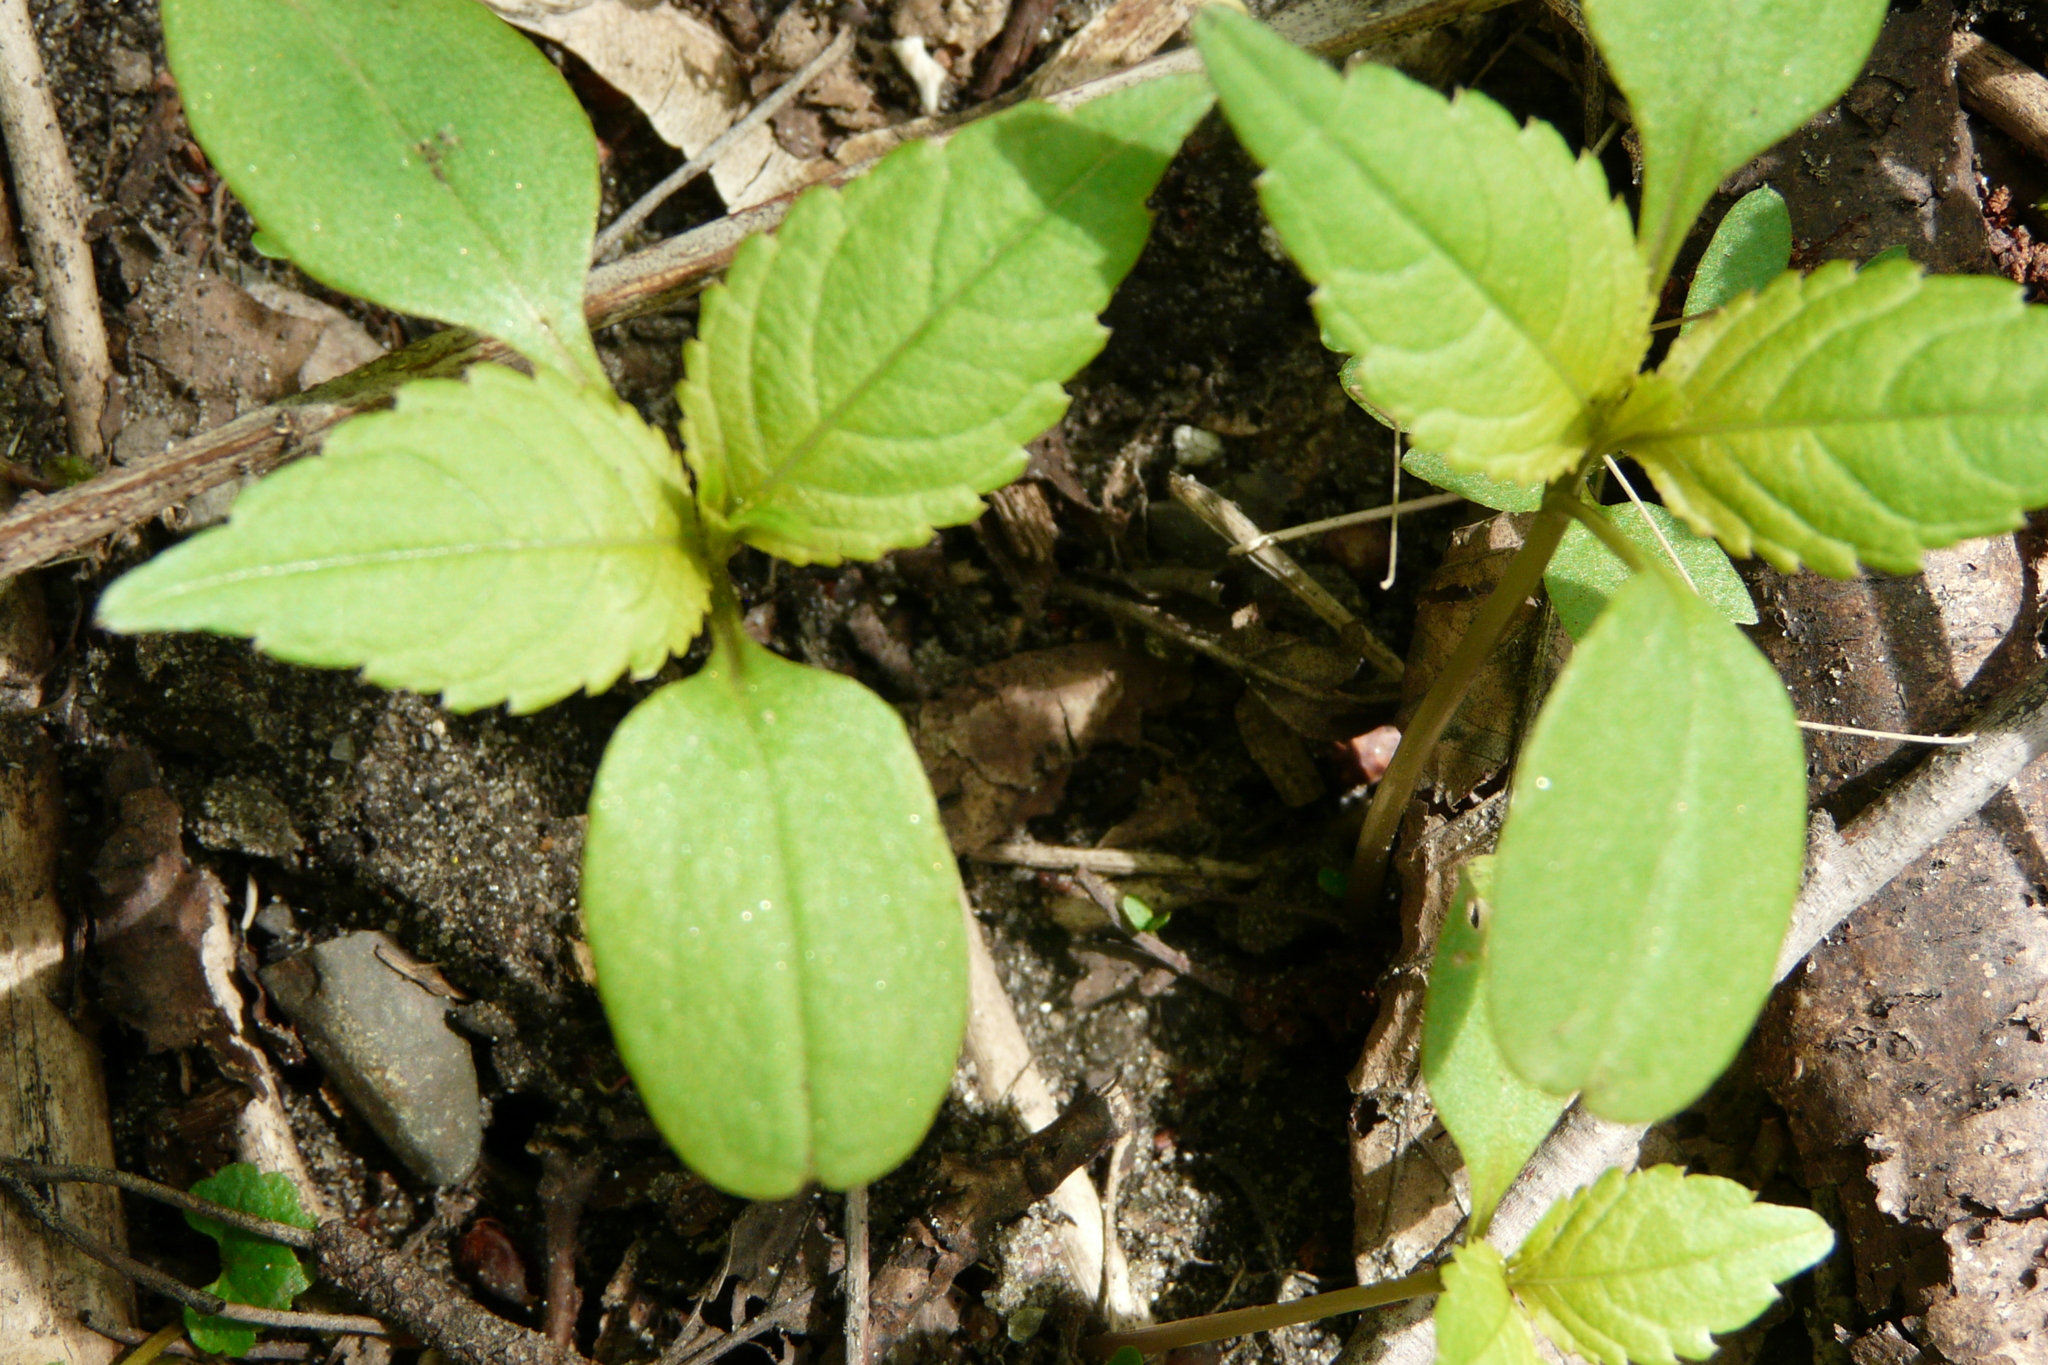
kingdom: Plantae
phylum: Tracheophyta
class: Magnoliopsida
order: Ericales
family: Balsaminaceae
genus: Impatiens
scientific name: Impatiens parviflora
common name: Small balsam
